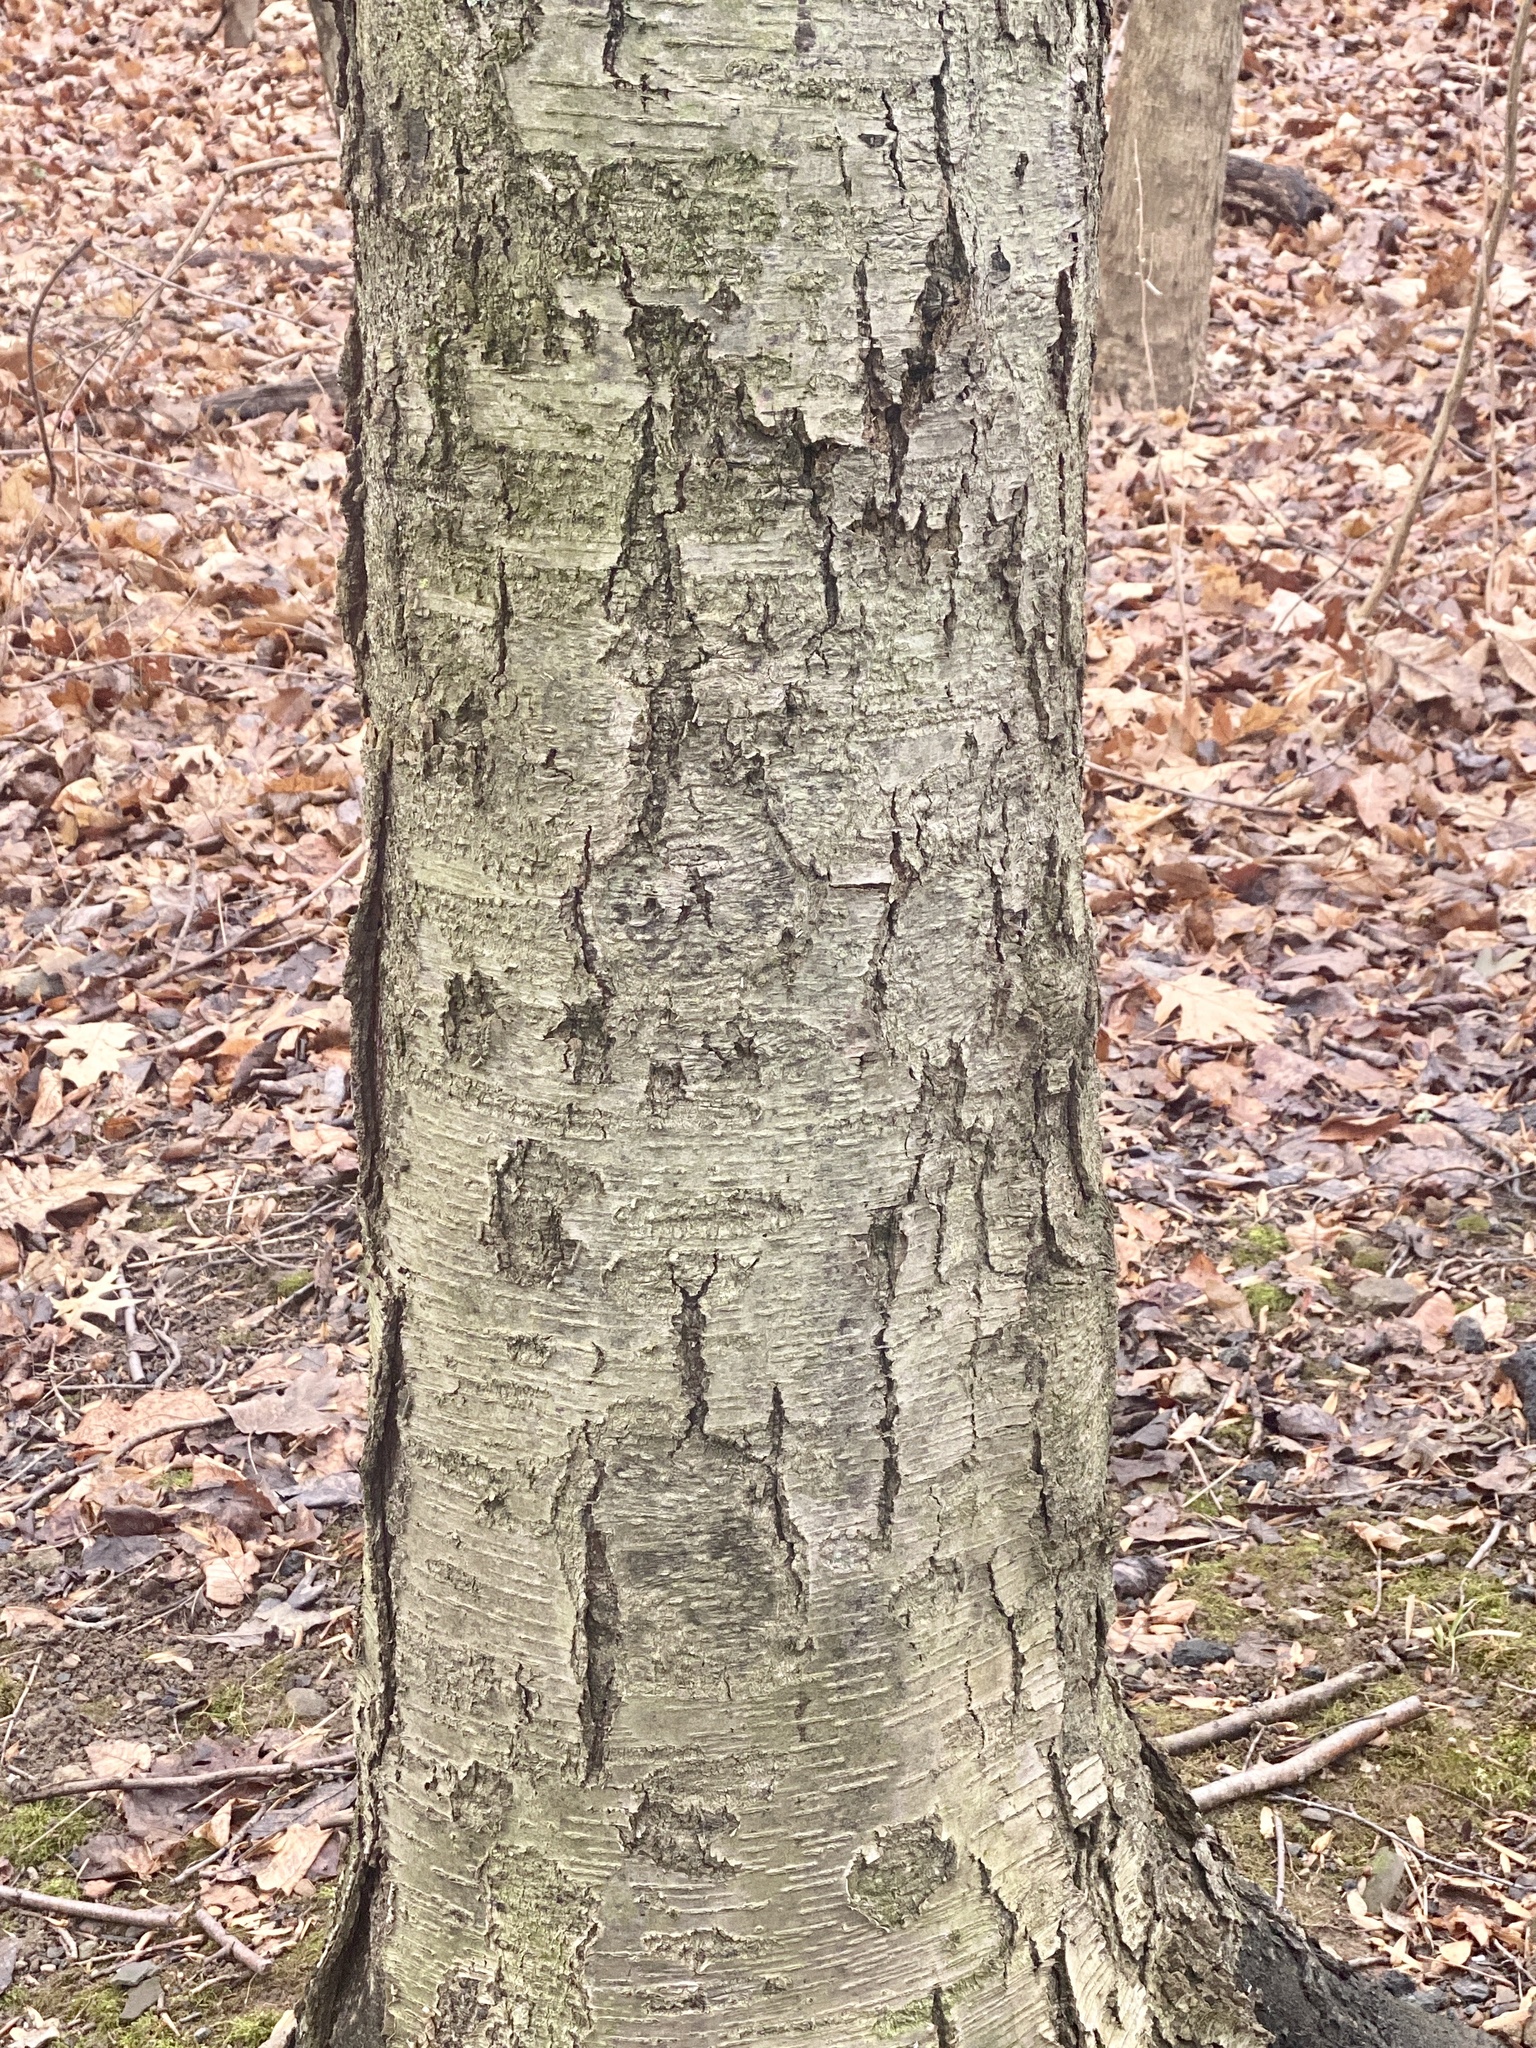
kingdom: Plantae
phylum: Tracheophyta
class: Magnoliopsida
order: Fagales
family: Betulaceae
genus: Betula
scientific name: Betula lenta
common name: Black birch
